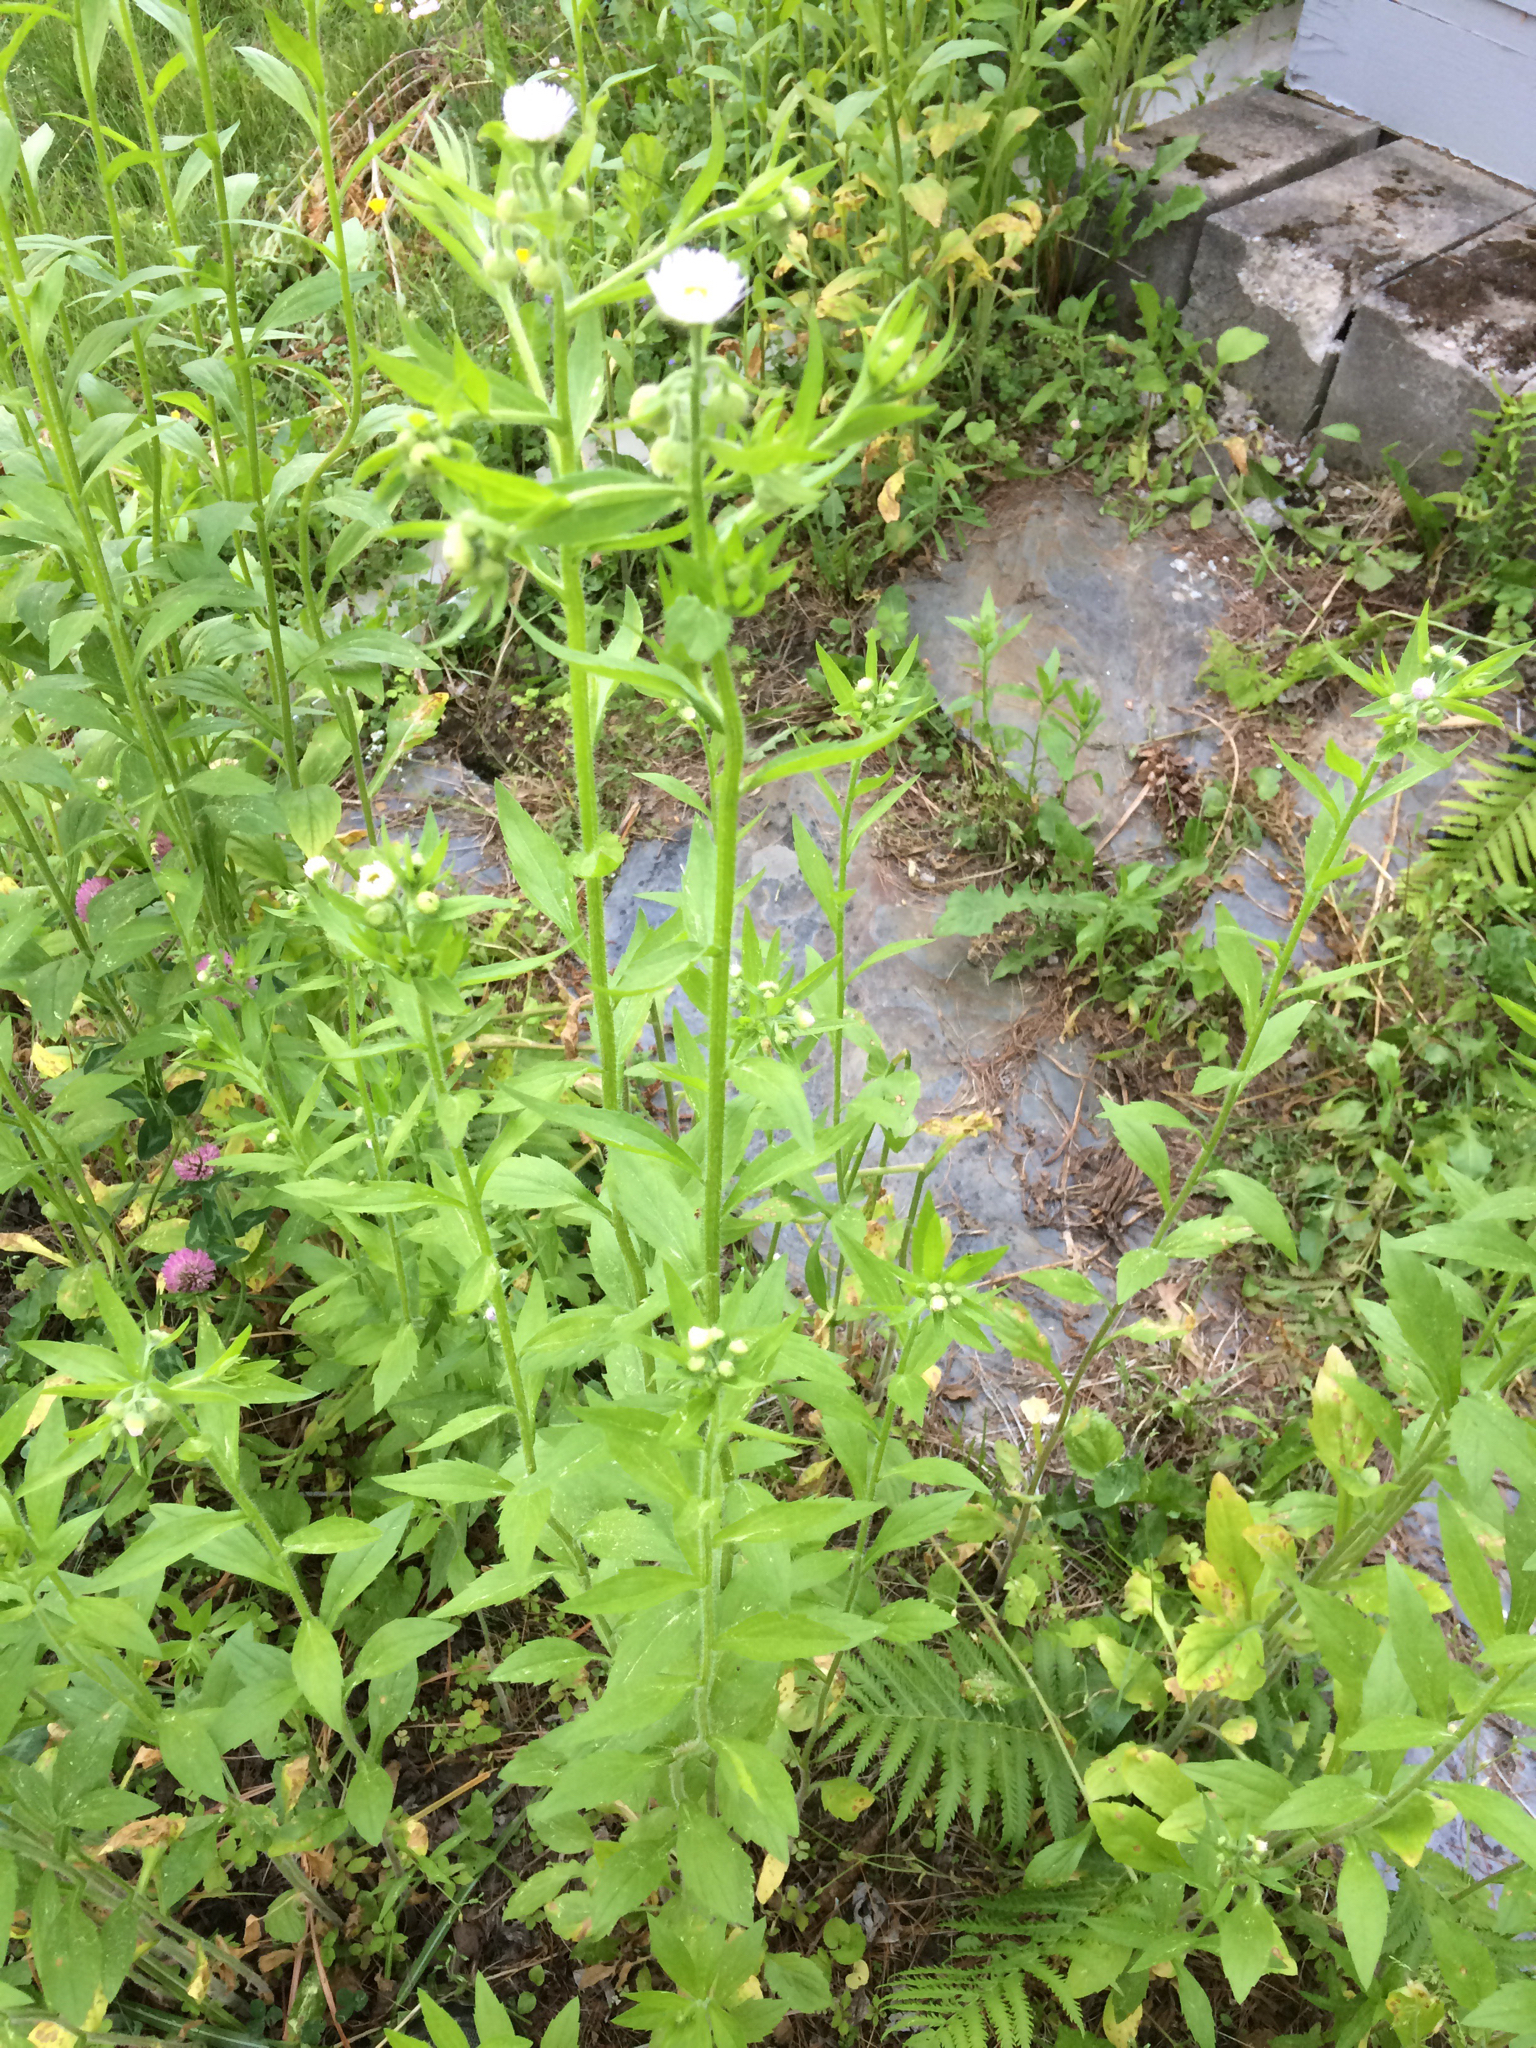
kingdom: Plantae
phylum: Tracheophyta
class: Magnoliopsida
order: Asterales
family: Asteraceae
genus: Erigeron
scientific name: Erigeron annuus
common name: Tall fleabane
